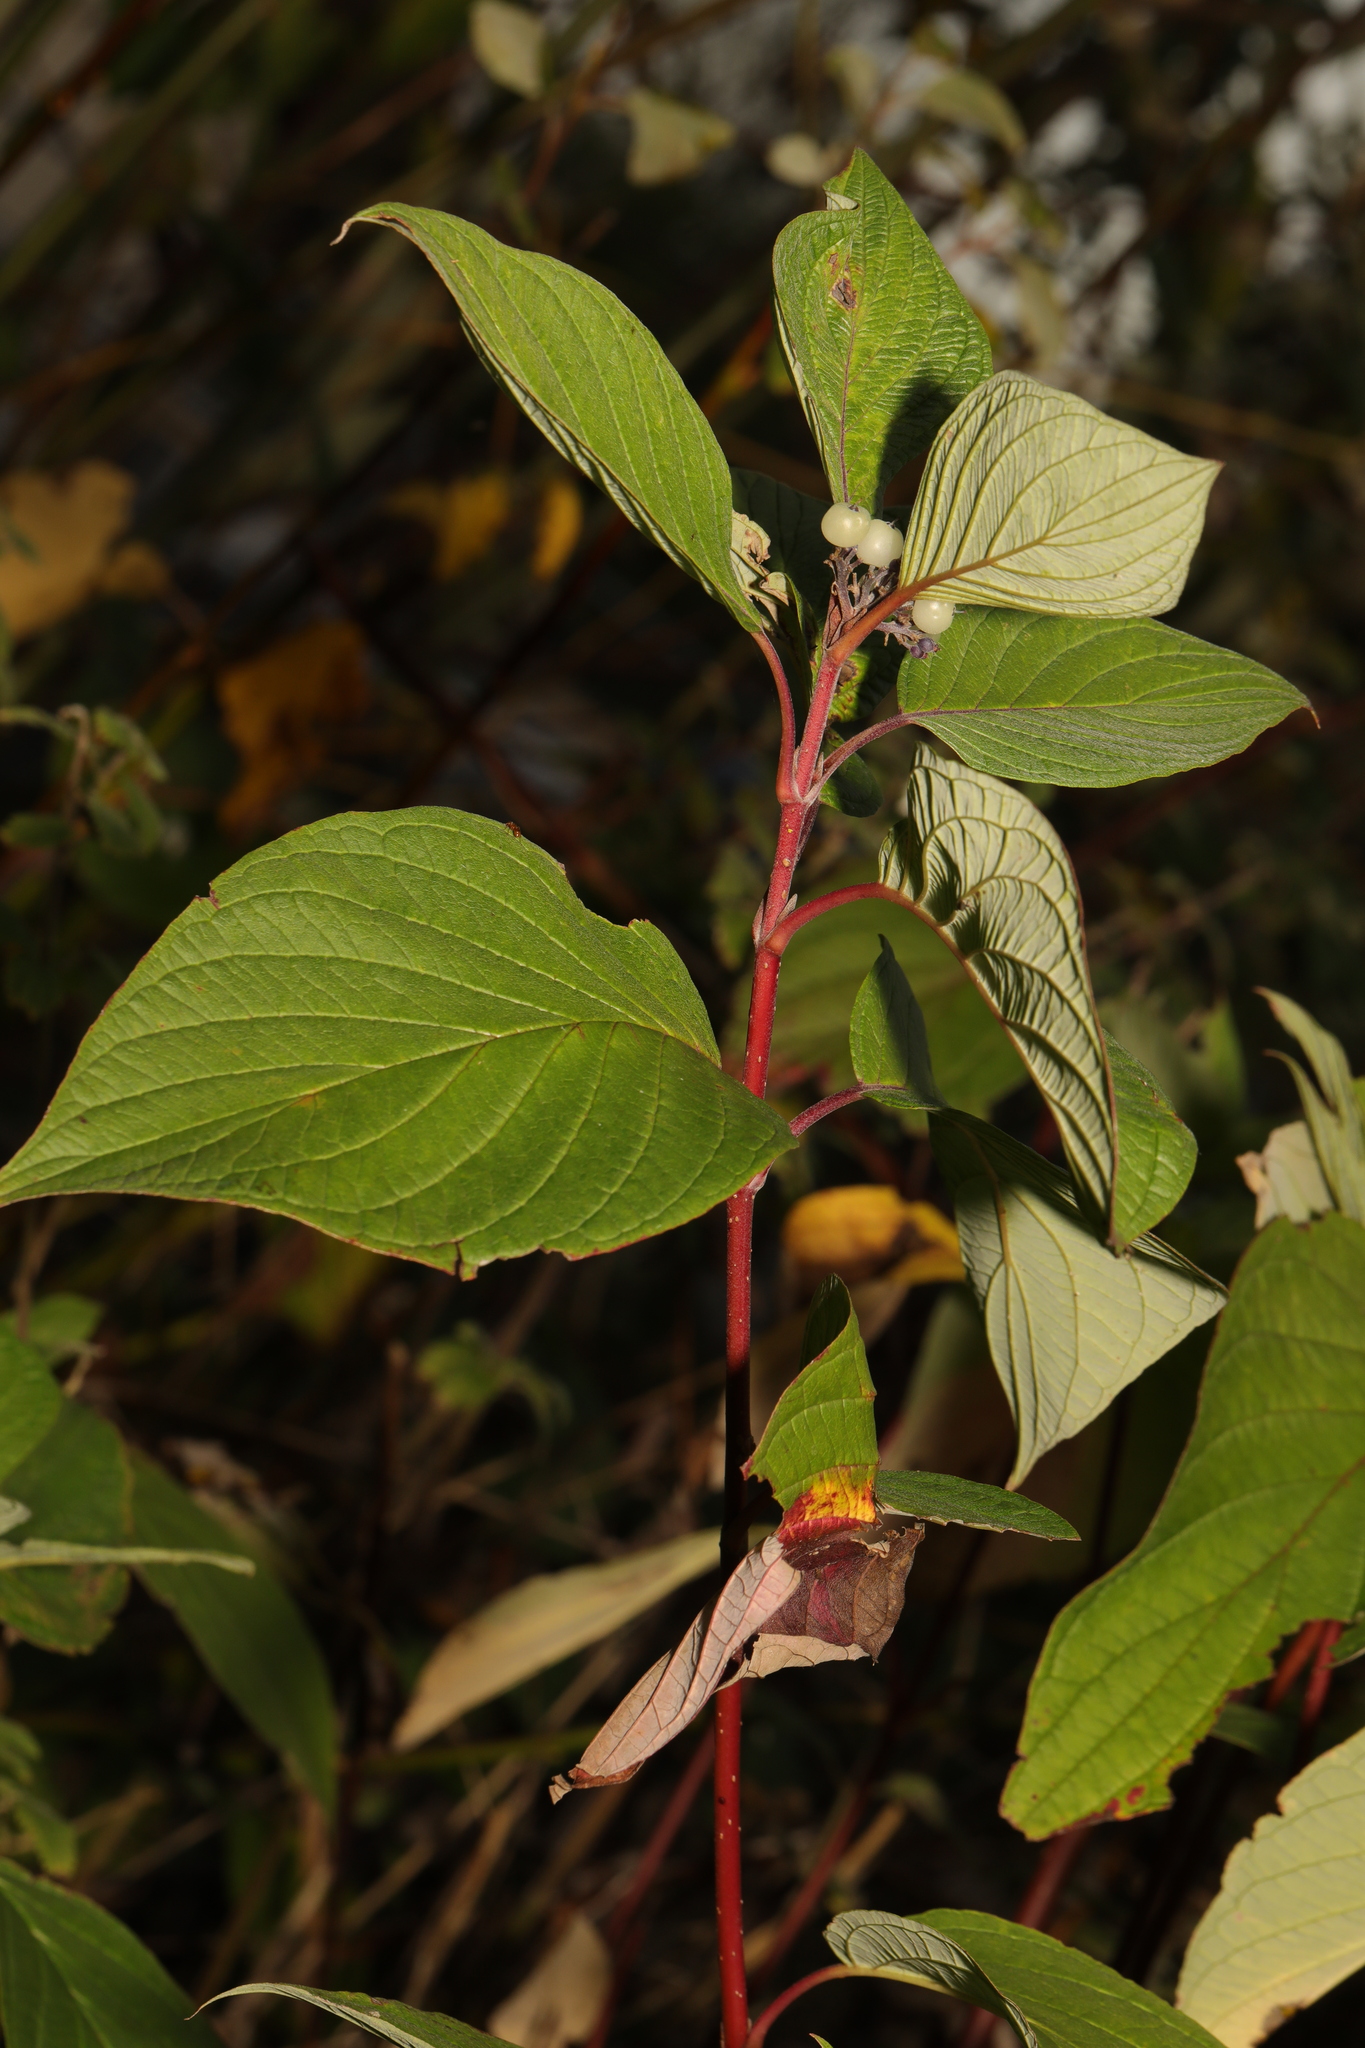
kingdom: Plantae
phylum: Tracheophyta
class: Magnoliopsida
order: Cornales
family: Cornaceae
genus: Cornus
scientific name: Cornus sericea
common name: Red-osier dogwood
